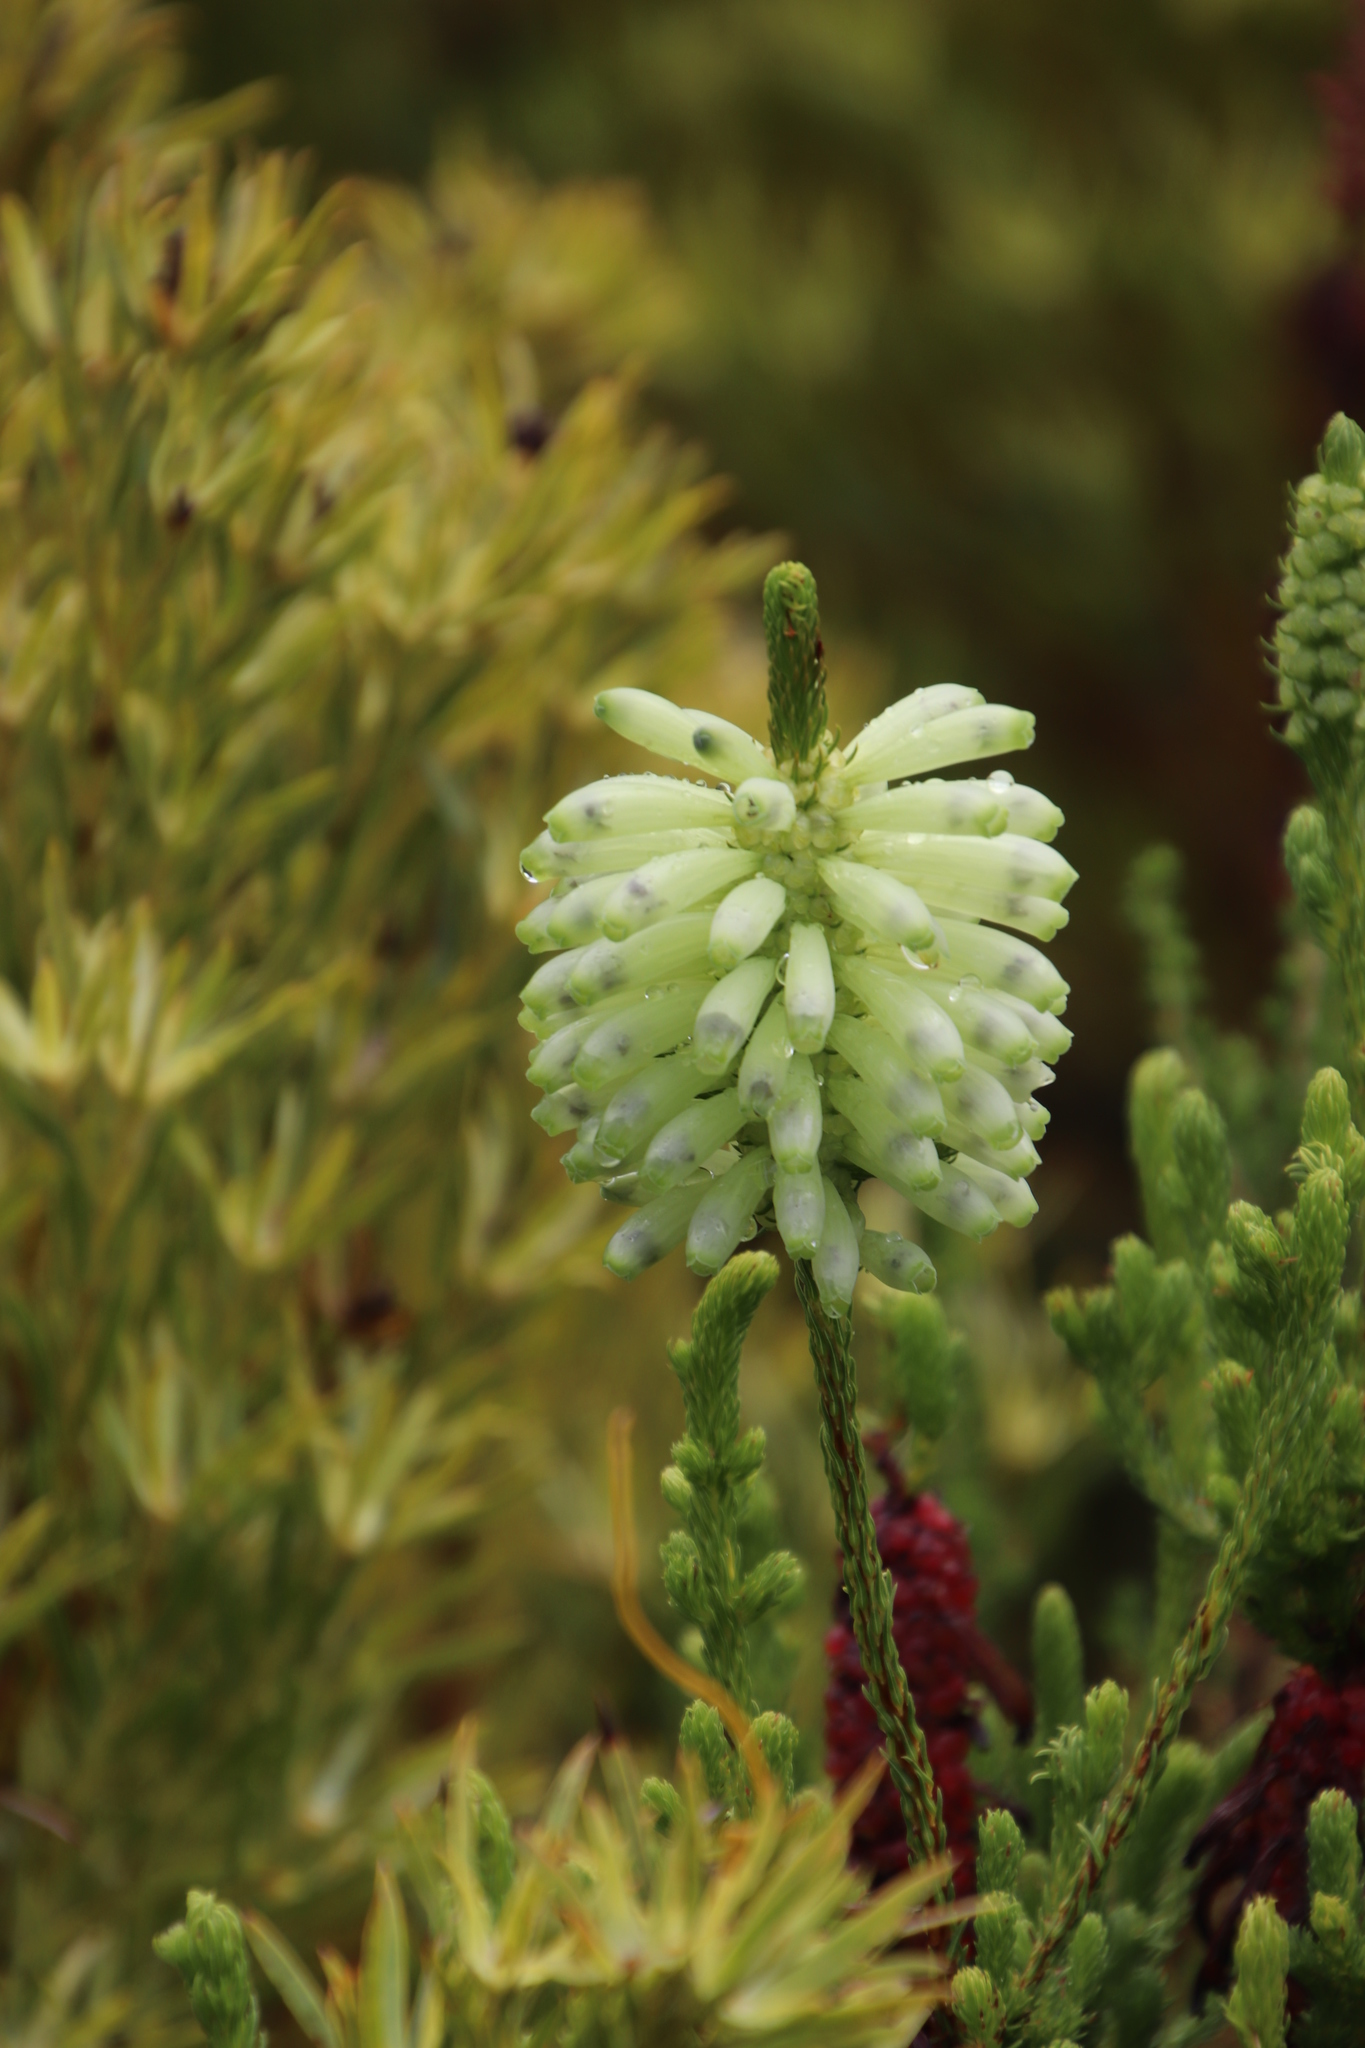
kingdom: Plantae
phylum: Tracheophyta
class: Magnoliopsida
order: Ericales
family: Ericaceae
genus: Erica
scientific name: Erica sessiliflora
